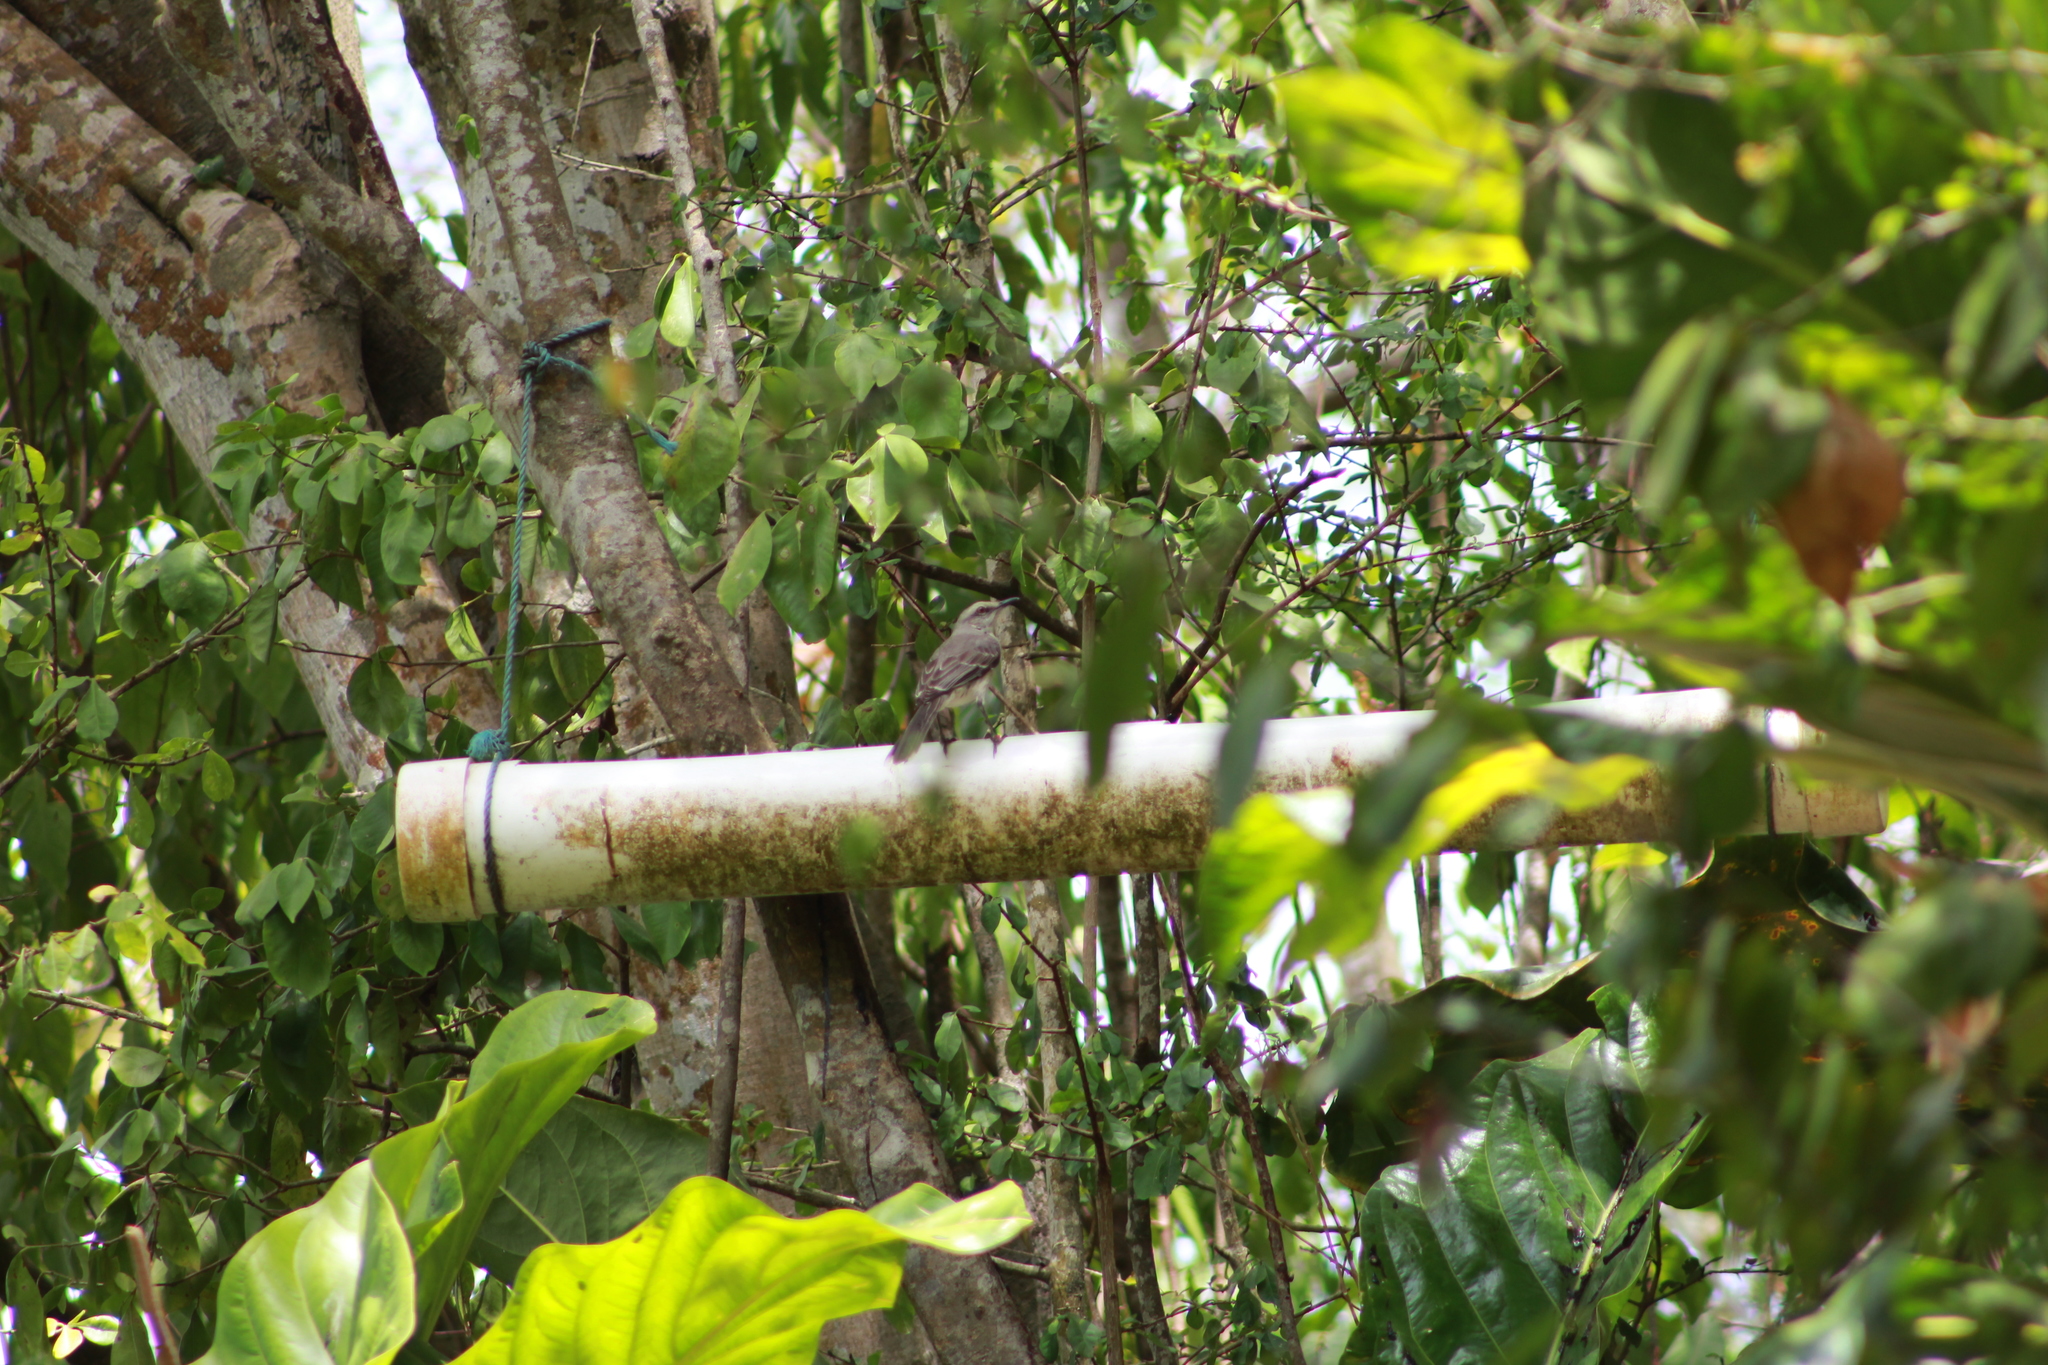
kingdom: Animalia
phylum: Chordata
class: Aves
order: Passeriformes
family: Mimidae
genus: Mimus
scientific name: Mimus gilvus
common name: Tropical mockingbird
